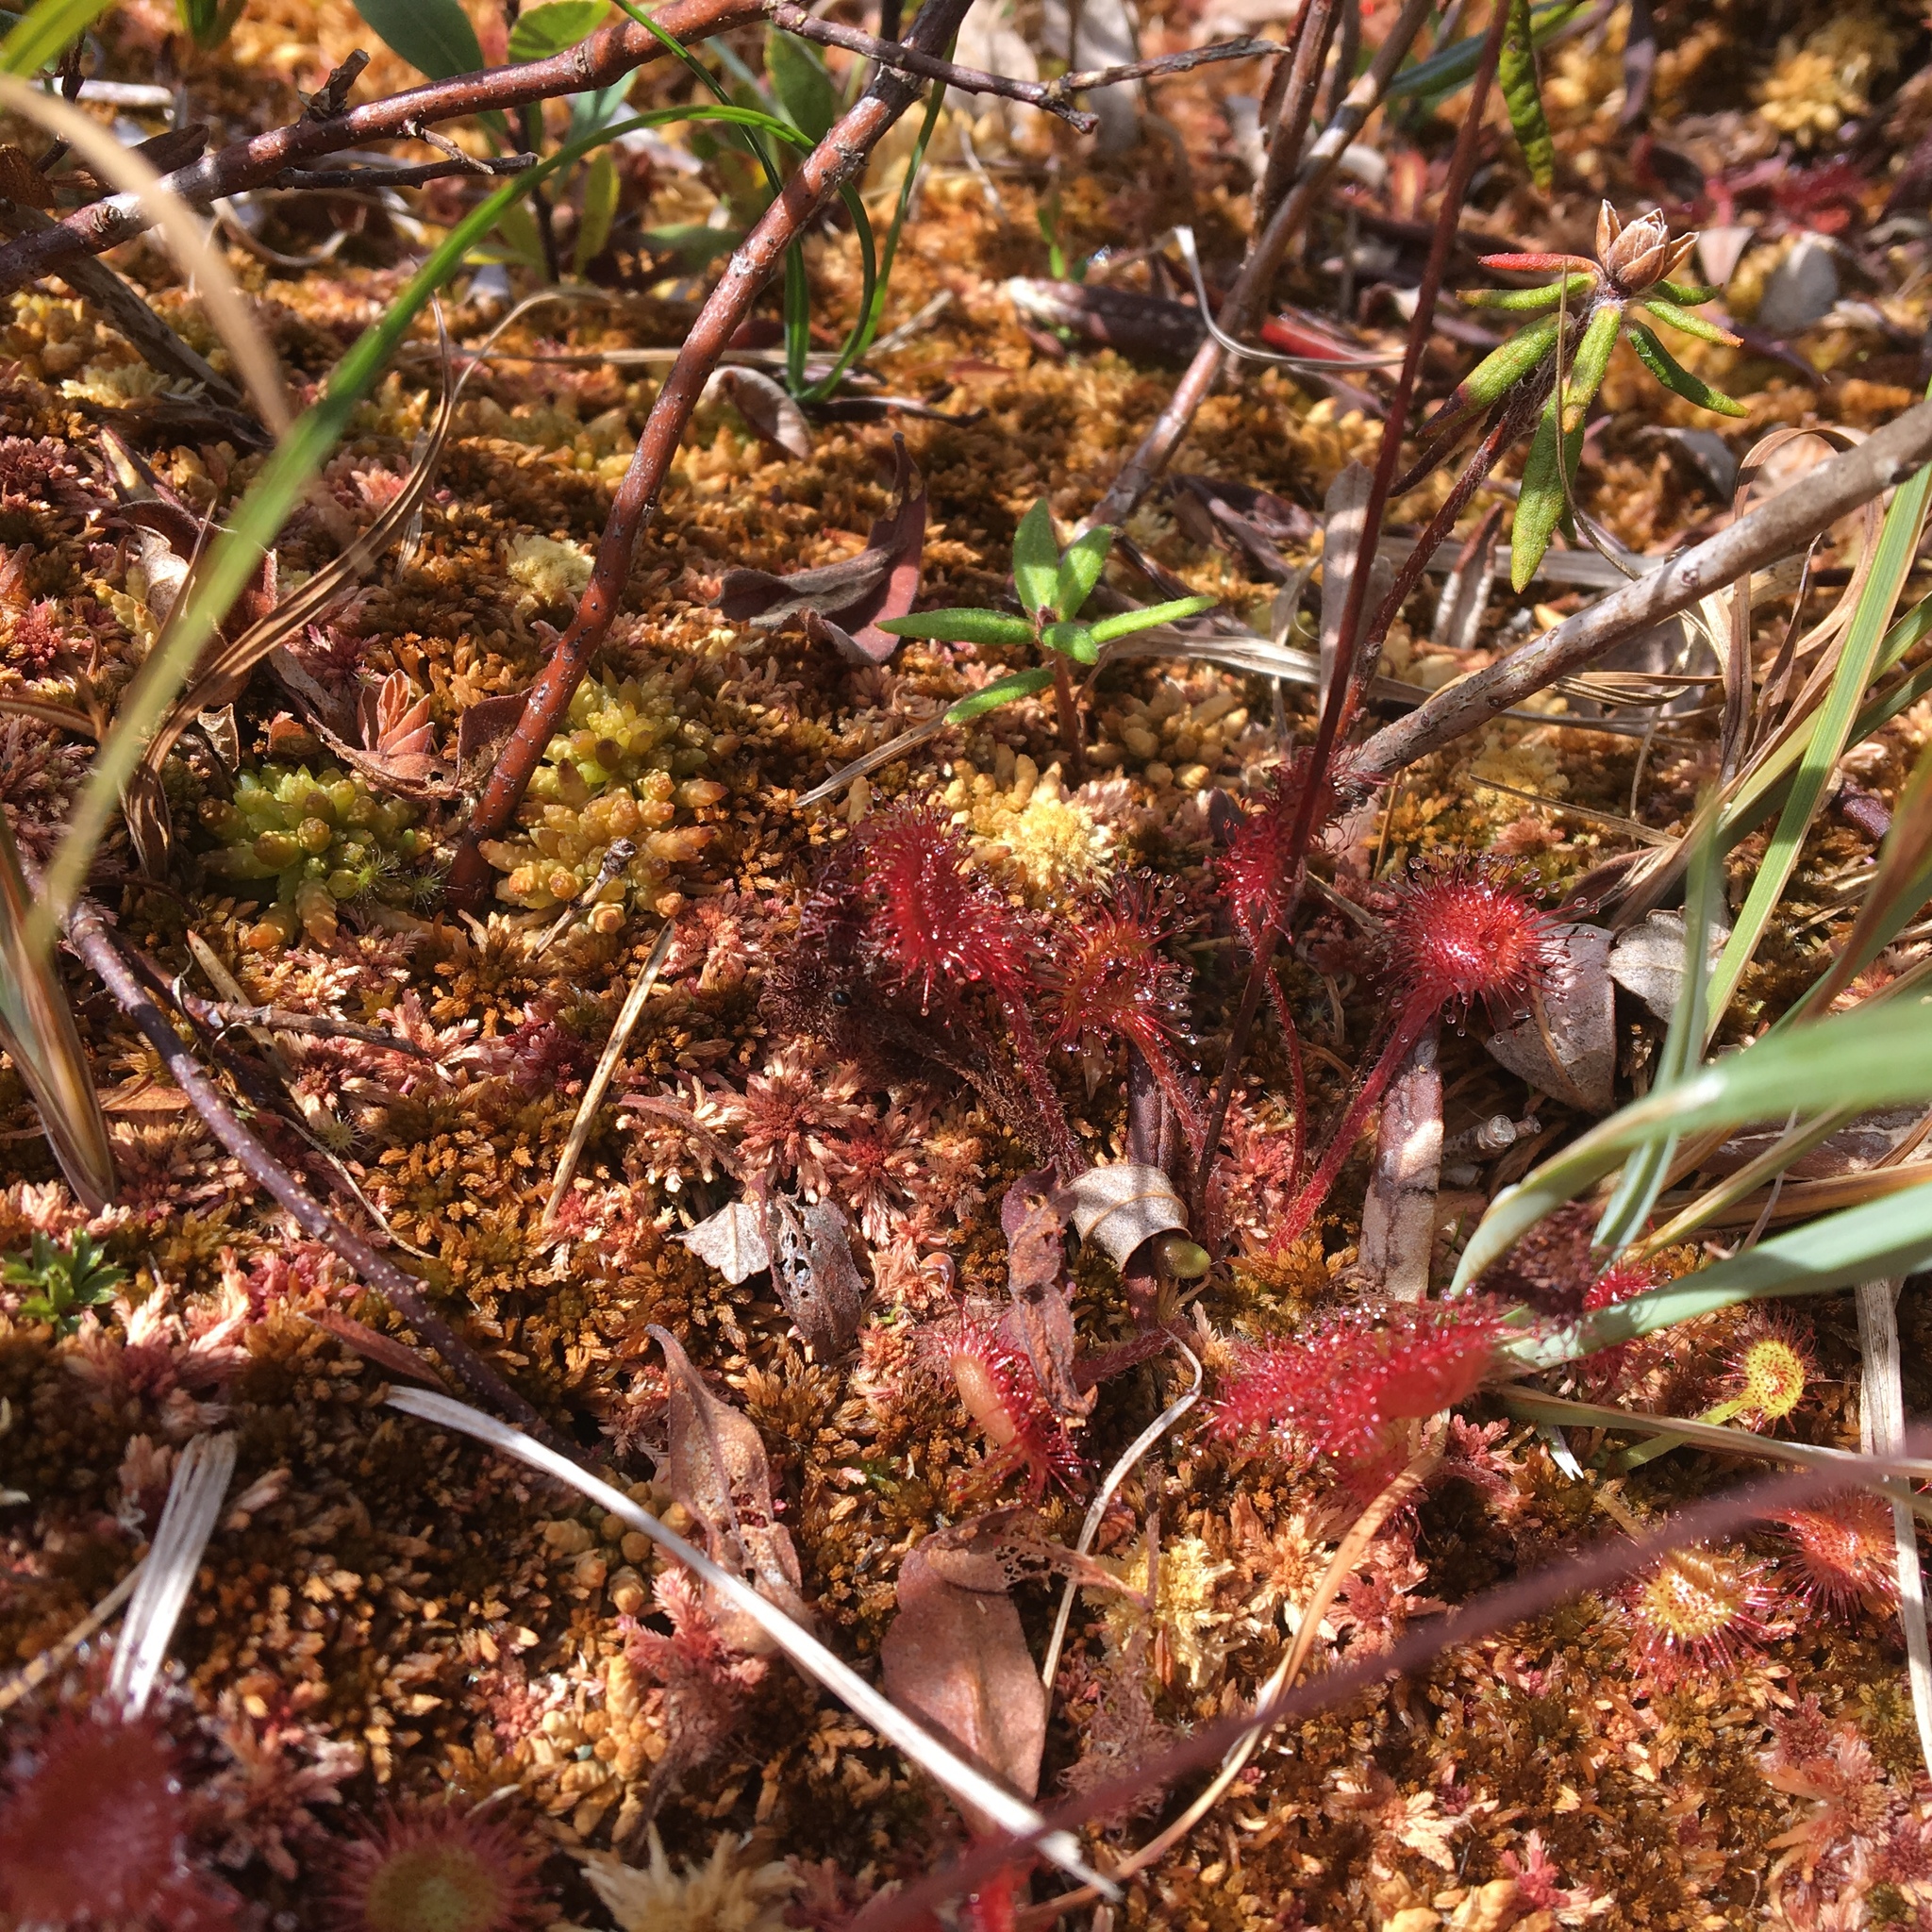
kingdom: Plantae
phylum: Tracheophyta
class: Magnoliopsida
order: Caryophyllales
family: Droseraceae
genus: Drosera
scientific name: Drosera rotundifolia
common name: Round-leaved sundew
